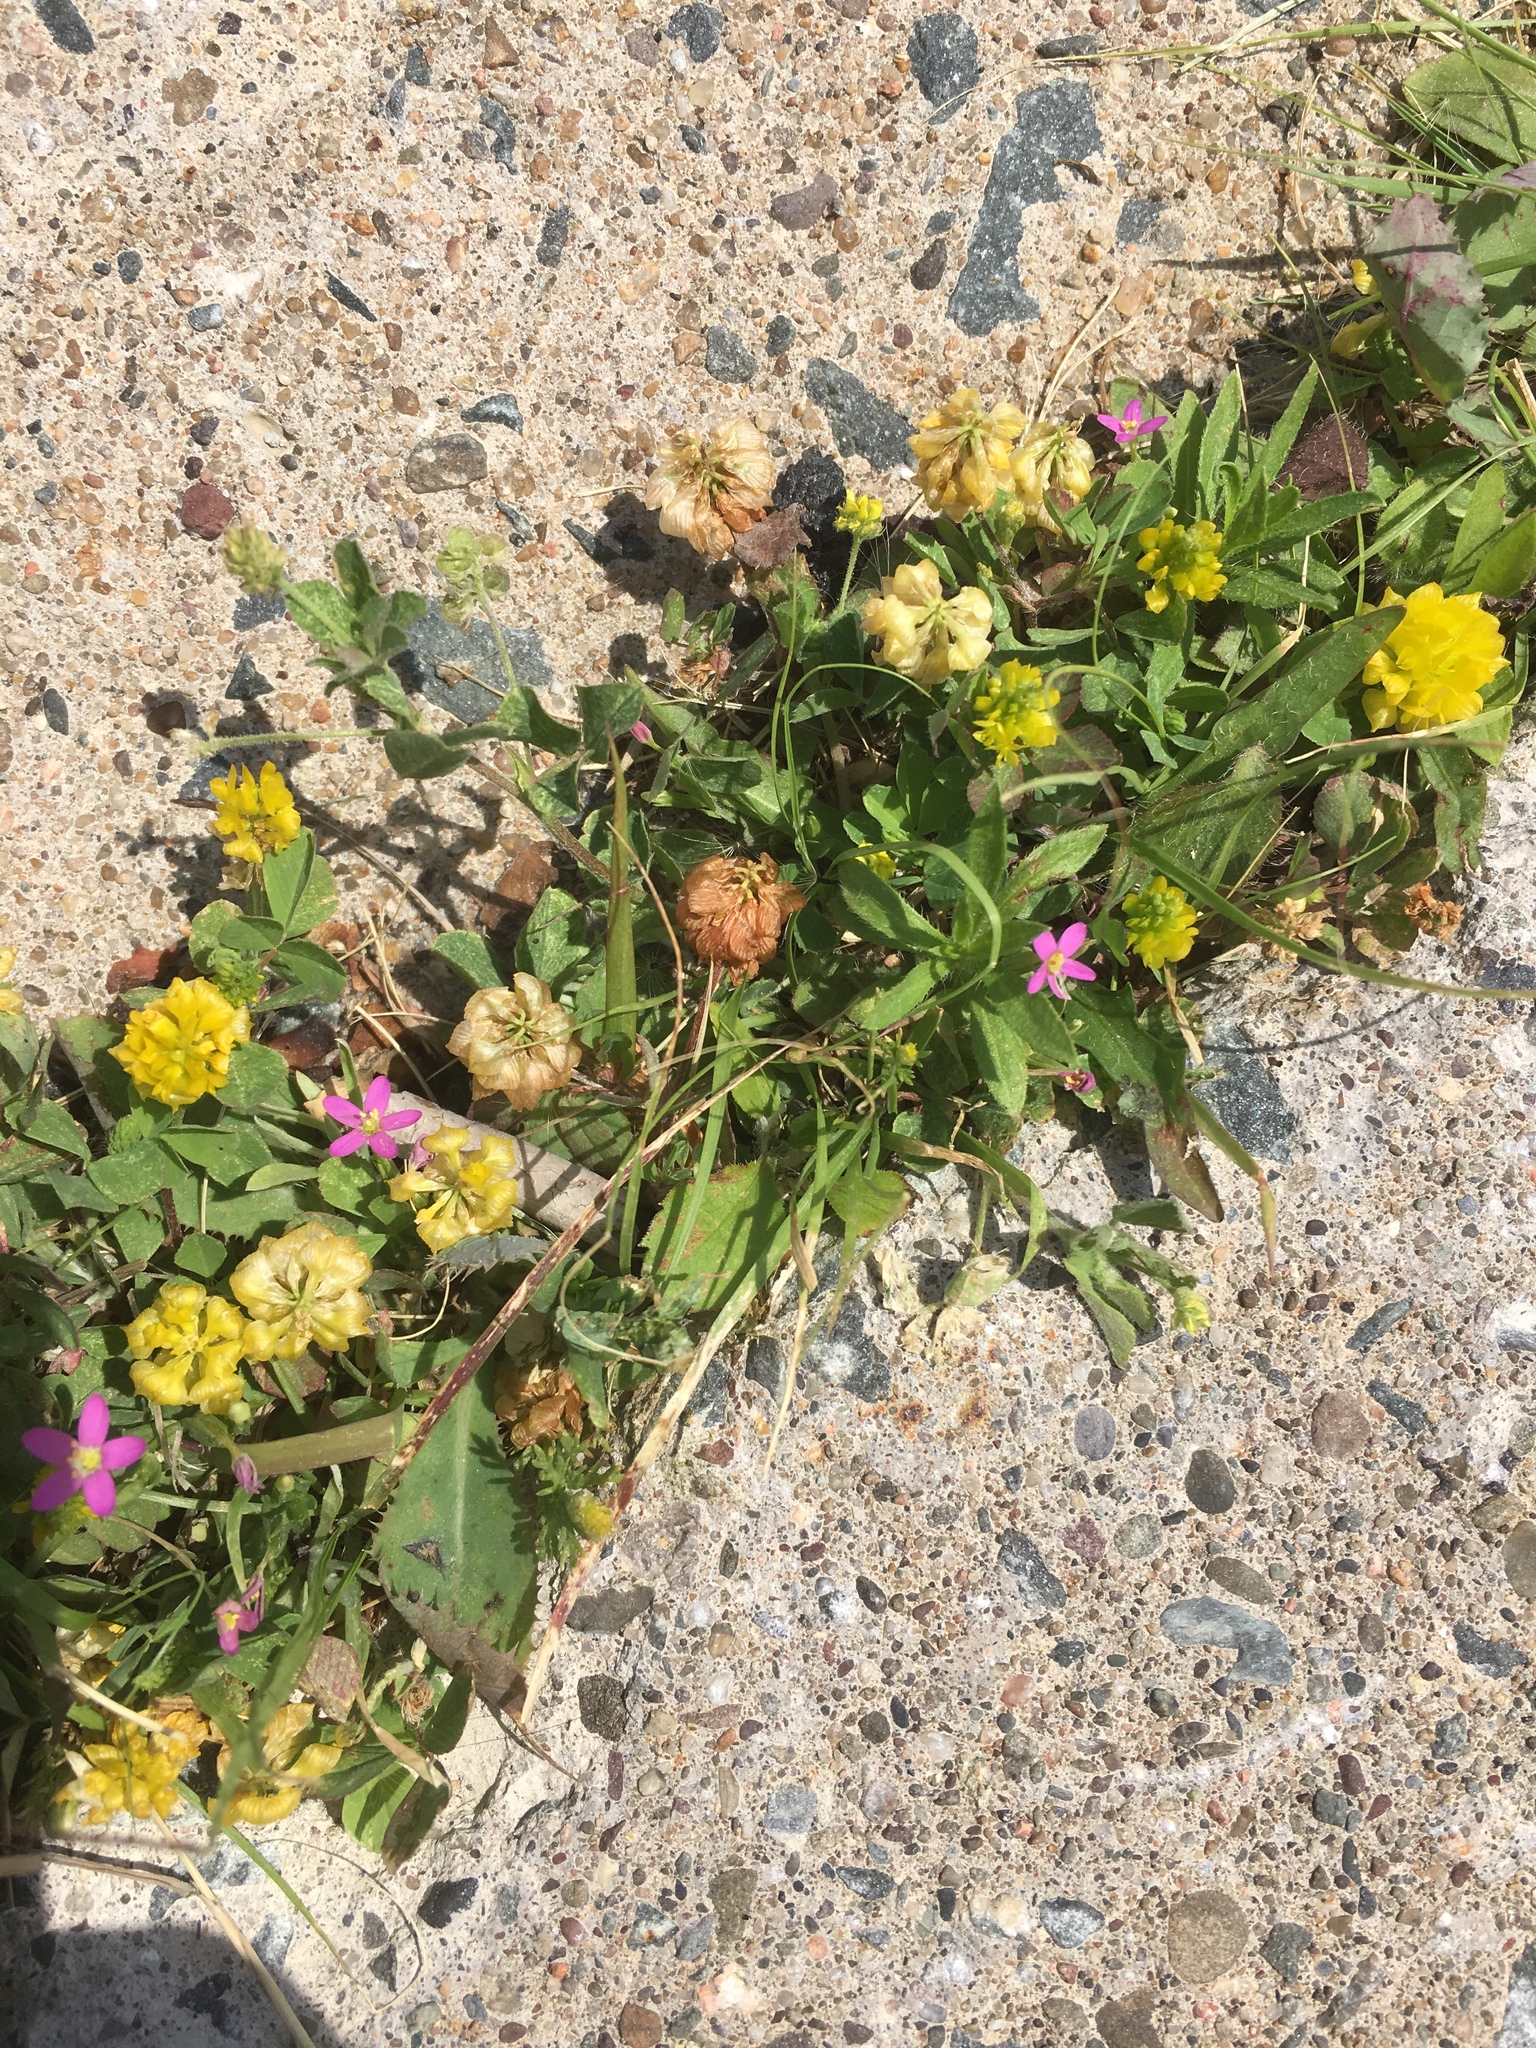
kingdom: Plantae
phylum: Tracheophyta
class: Magnoliopsida
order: Fabales
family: Fabaceae
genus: Trifolium
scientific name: Trifolium campestre
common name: Field clover
